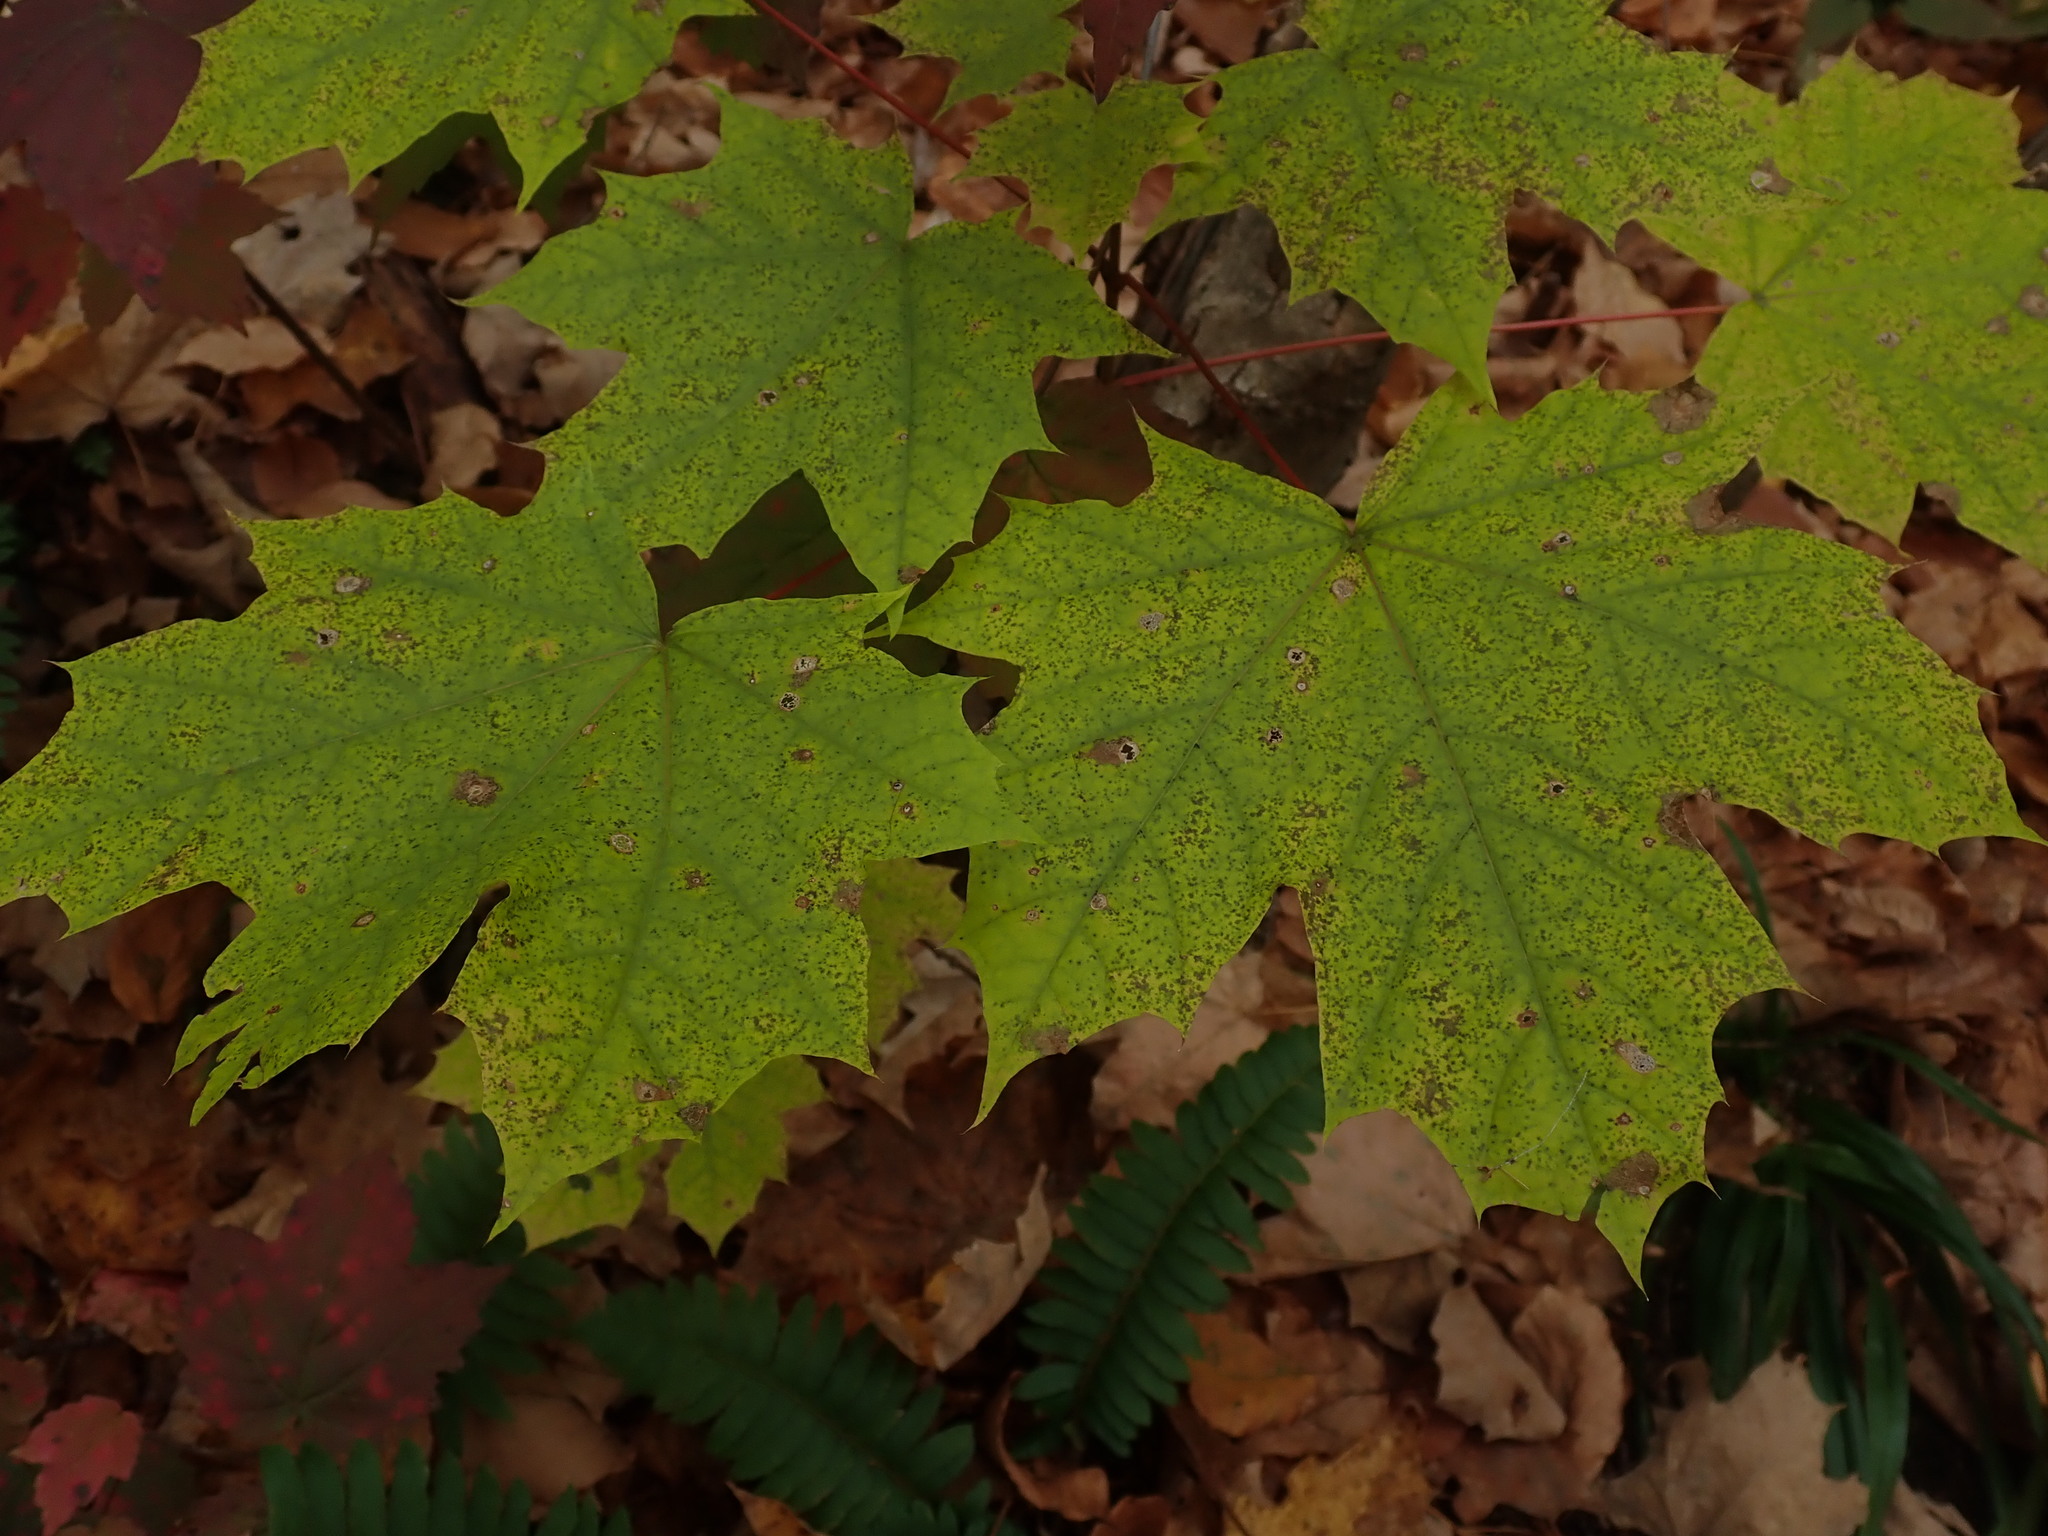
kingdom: Plantae
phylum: Tracheophyta
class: Magnoliopsida
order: Sapindales
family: Sapindaceae
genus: Acer
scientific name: Acer saccharum
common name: Sugar maple
